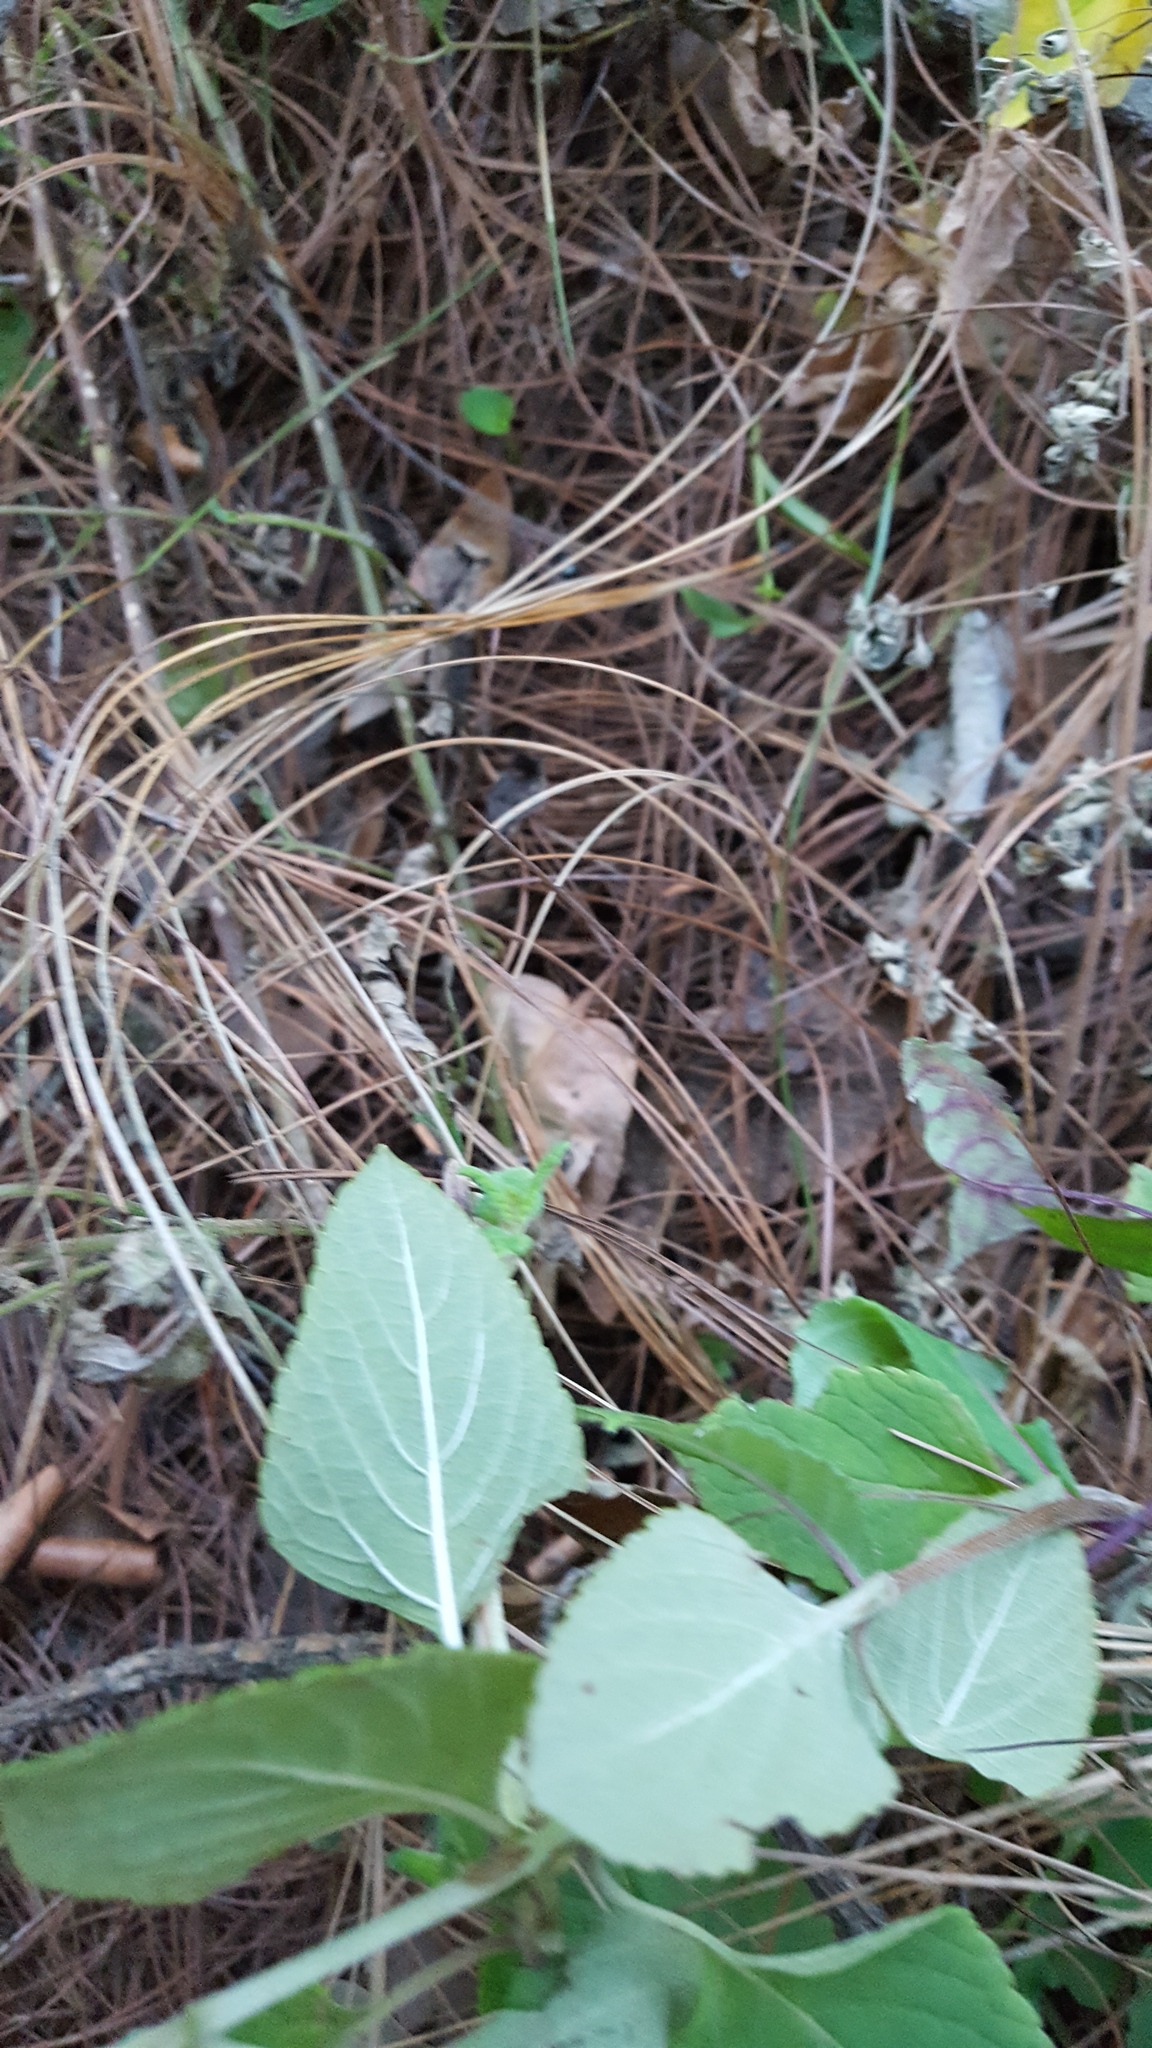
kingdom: Plantae
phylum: Tracheophyta
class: Magnoliopsida
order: Lamiales
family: Lamiaceae
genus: Salvia
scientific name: Salvia tricuspidata
